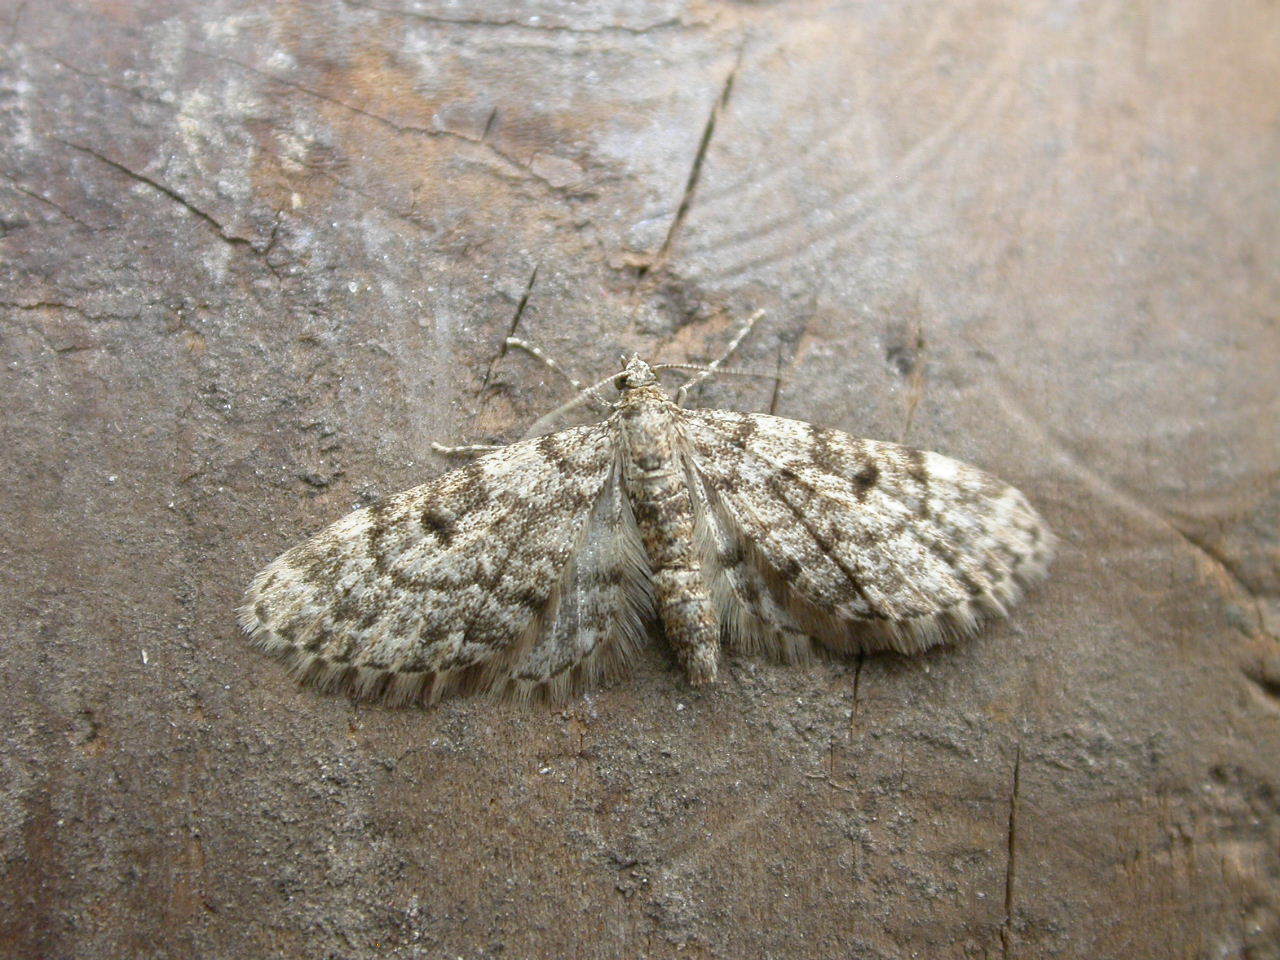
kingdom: Animalia
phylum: Arthropoda
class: Insecta
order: Lepidoptera
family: Geometridae
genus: Eupithecia
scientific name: Eupithecia tantillaria
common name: Dwarf pug
